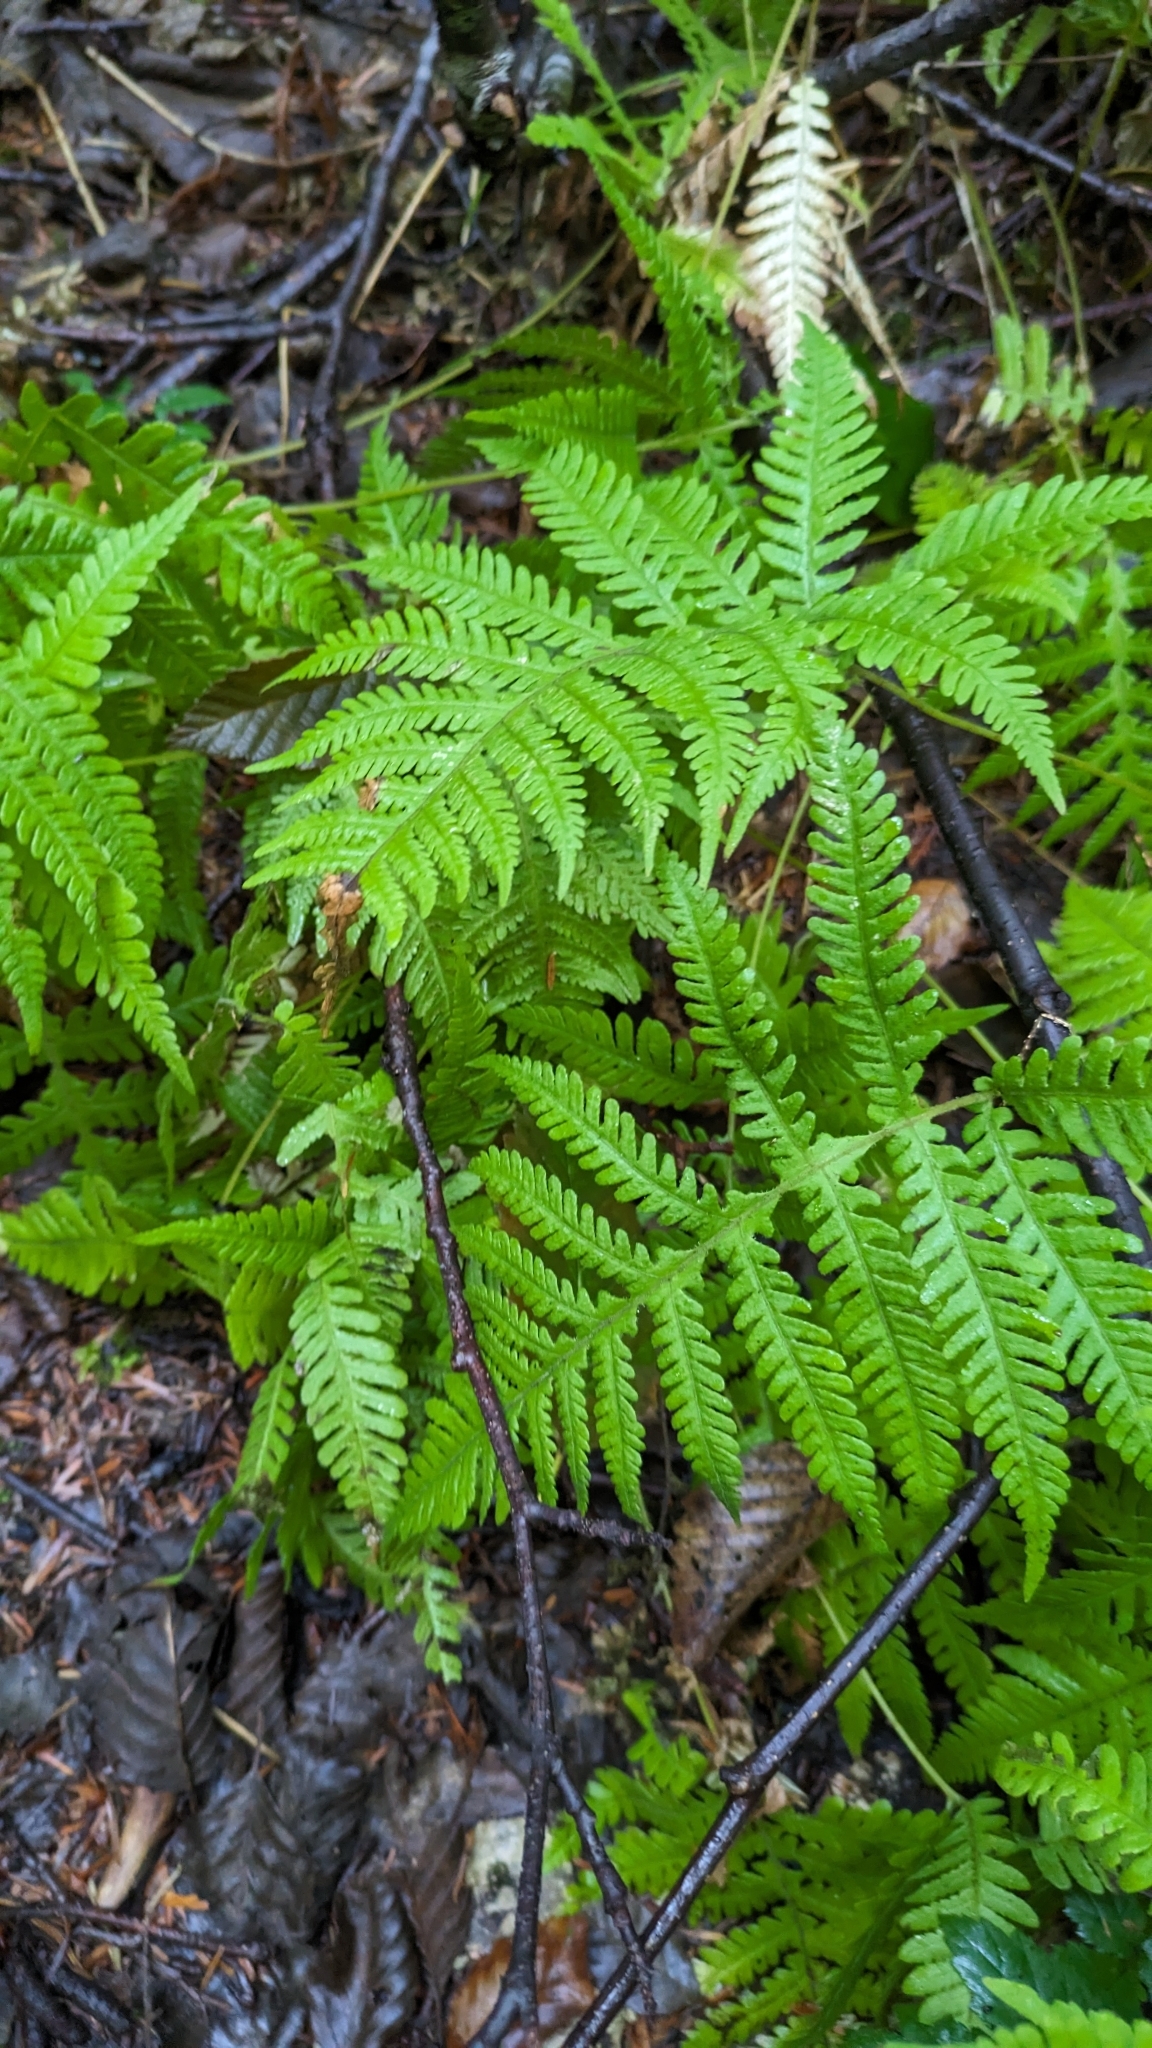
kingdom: Plantae
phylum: Tracheophyta
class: Polypodiopsida
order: Polypodiales
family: Thelypteridaceae
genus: Phegopteris
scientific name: Phegopteris connectilis
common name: Beech fern
